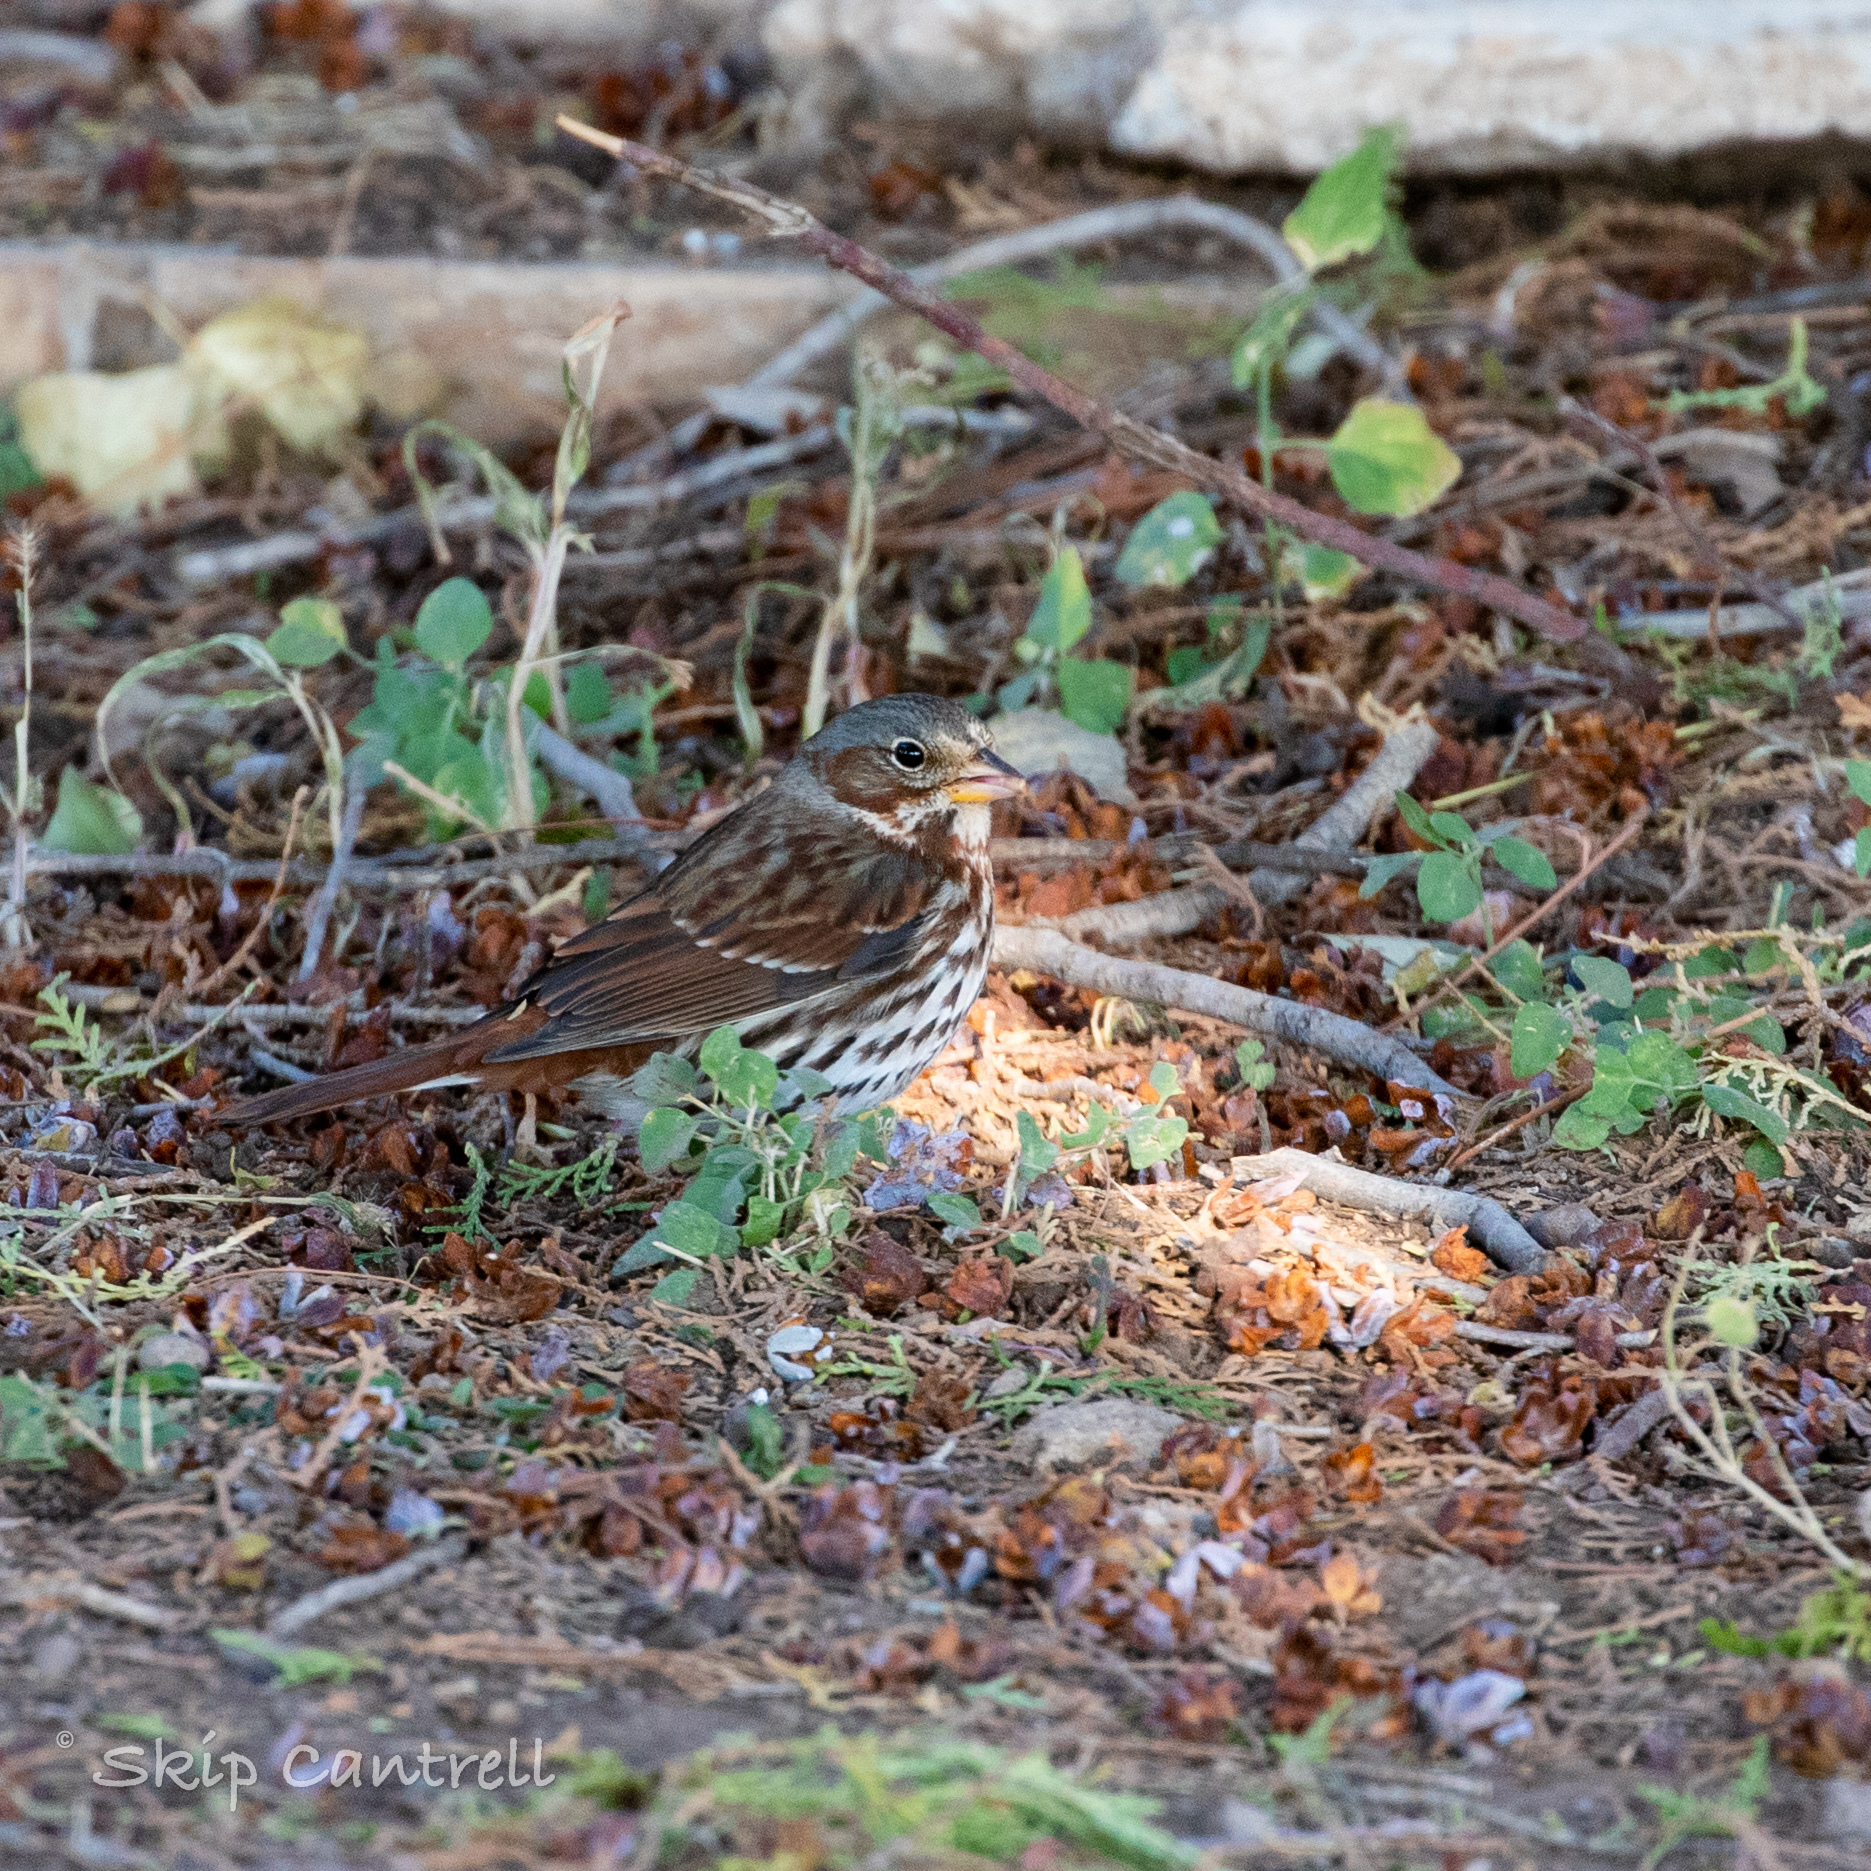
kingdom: Animalia
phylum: Chordata
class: Aves
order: Passeriformes
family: Passerellidae
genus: Passerella
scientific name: Passerella iliaca
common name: Fox sparrow
